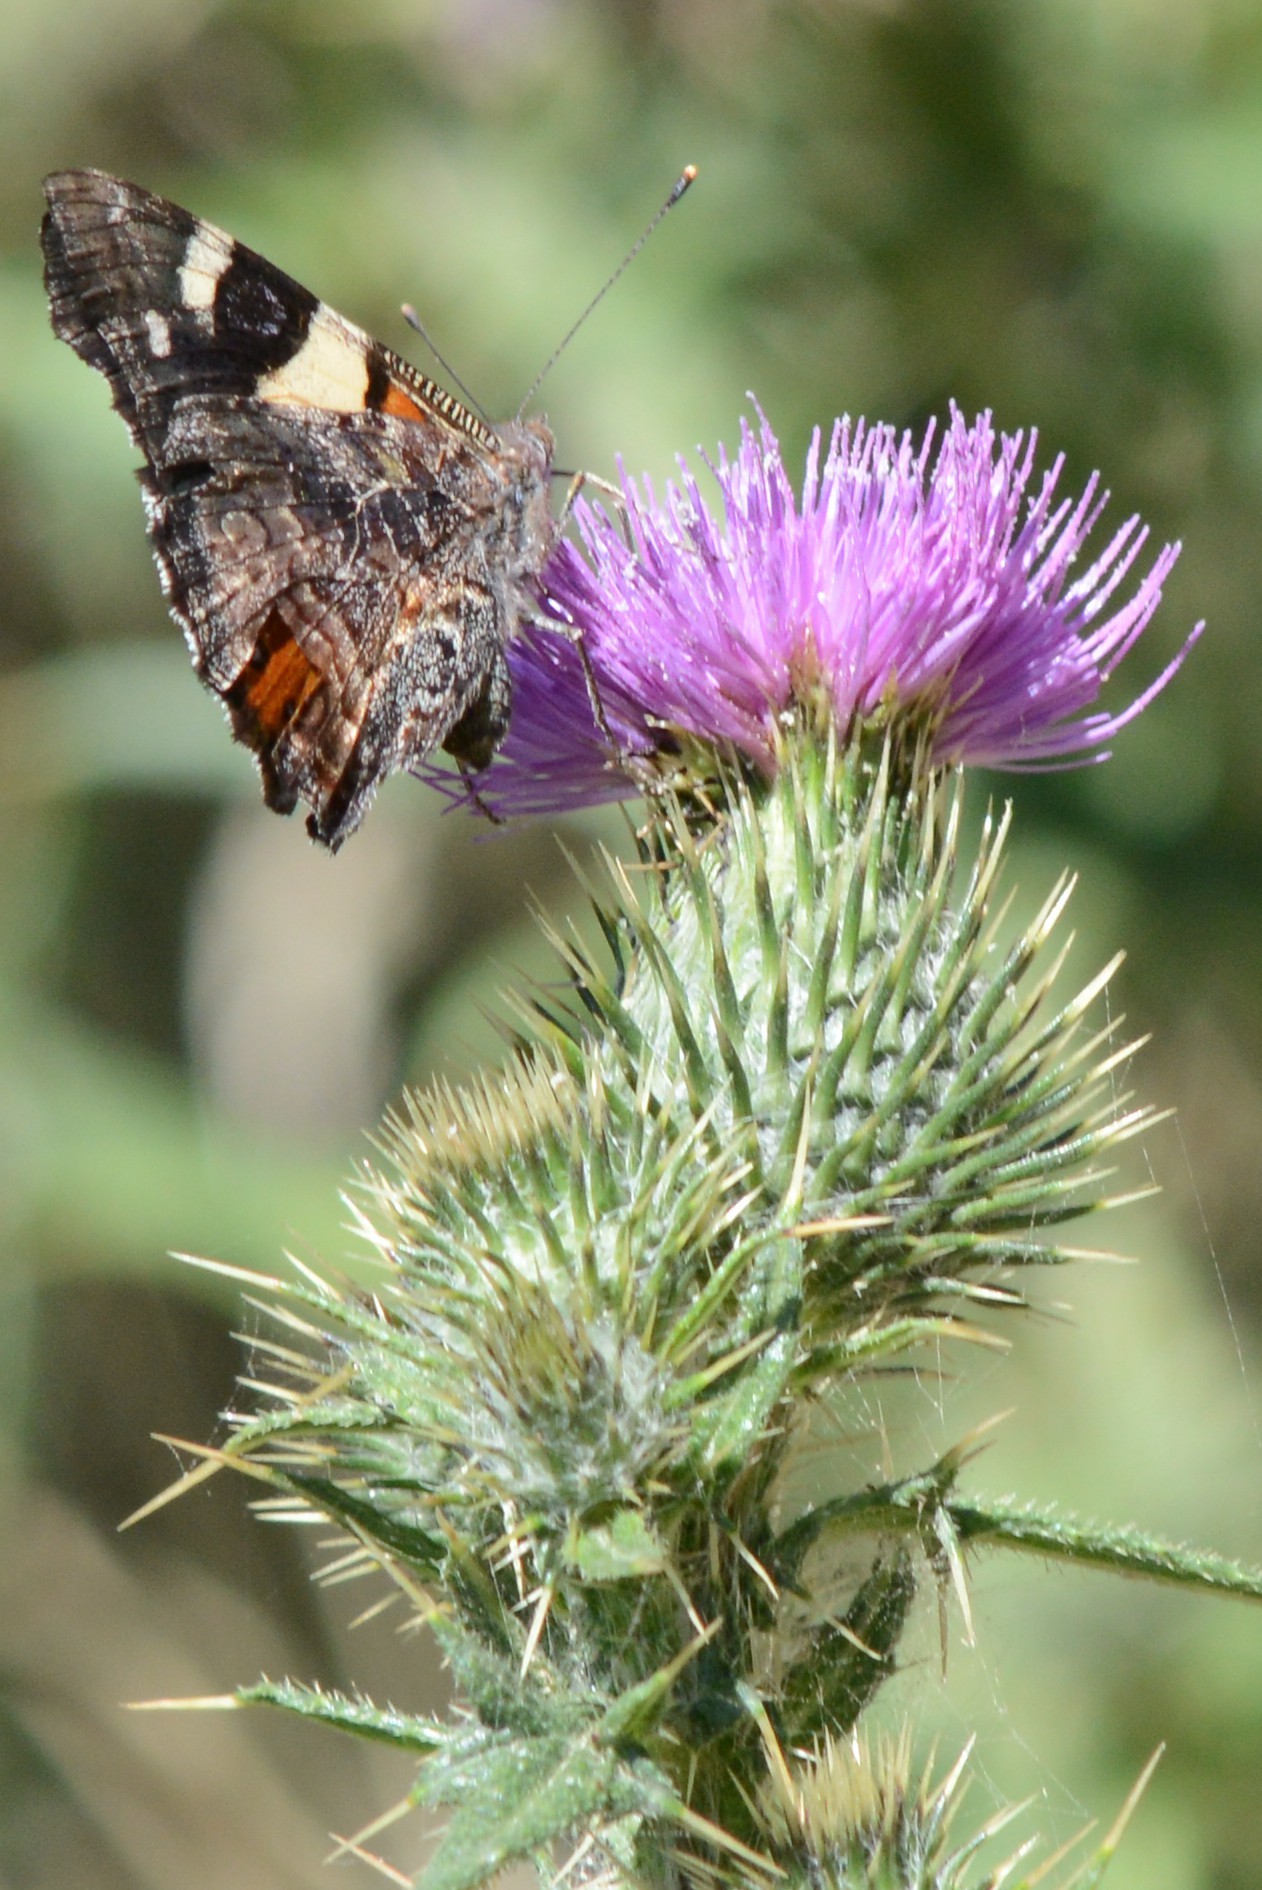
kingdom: Animalia
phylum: Arthropoda
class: Insecta
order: Lepidoptera
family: Nymphalidae
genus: Vanessa
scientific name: Vanessa itea
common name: Yellow admiral
